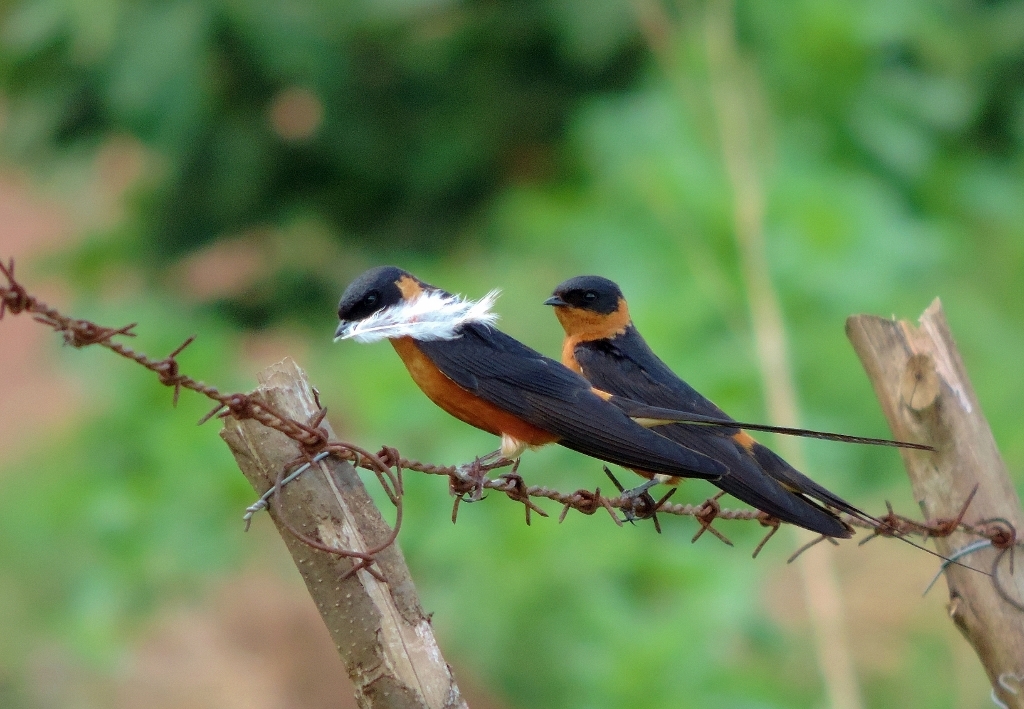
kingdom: Animalia
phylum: Chordata
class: Aves
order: Passeriformes
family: Hirundinidae
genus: Cecropis
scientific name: Cecropis semirufa
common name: Red-breasted swallow
